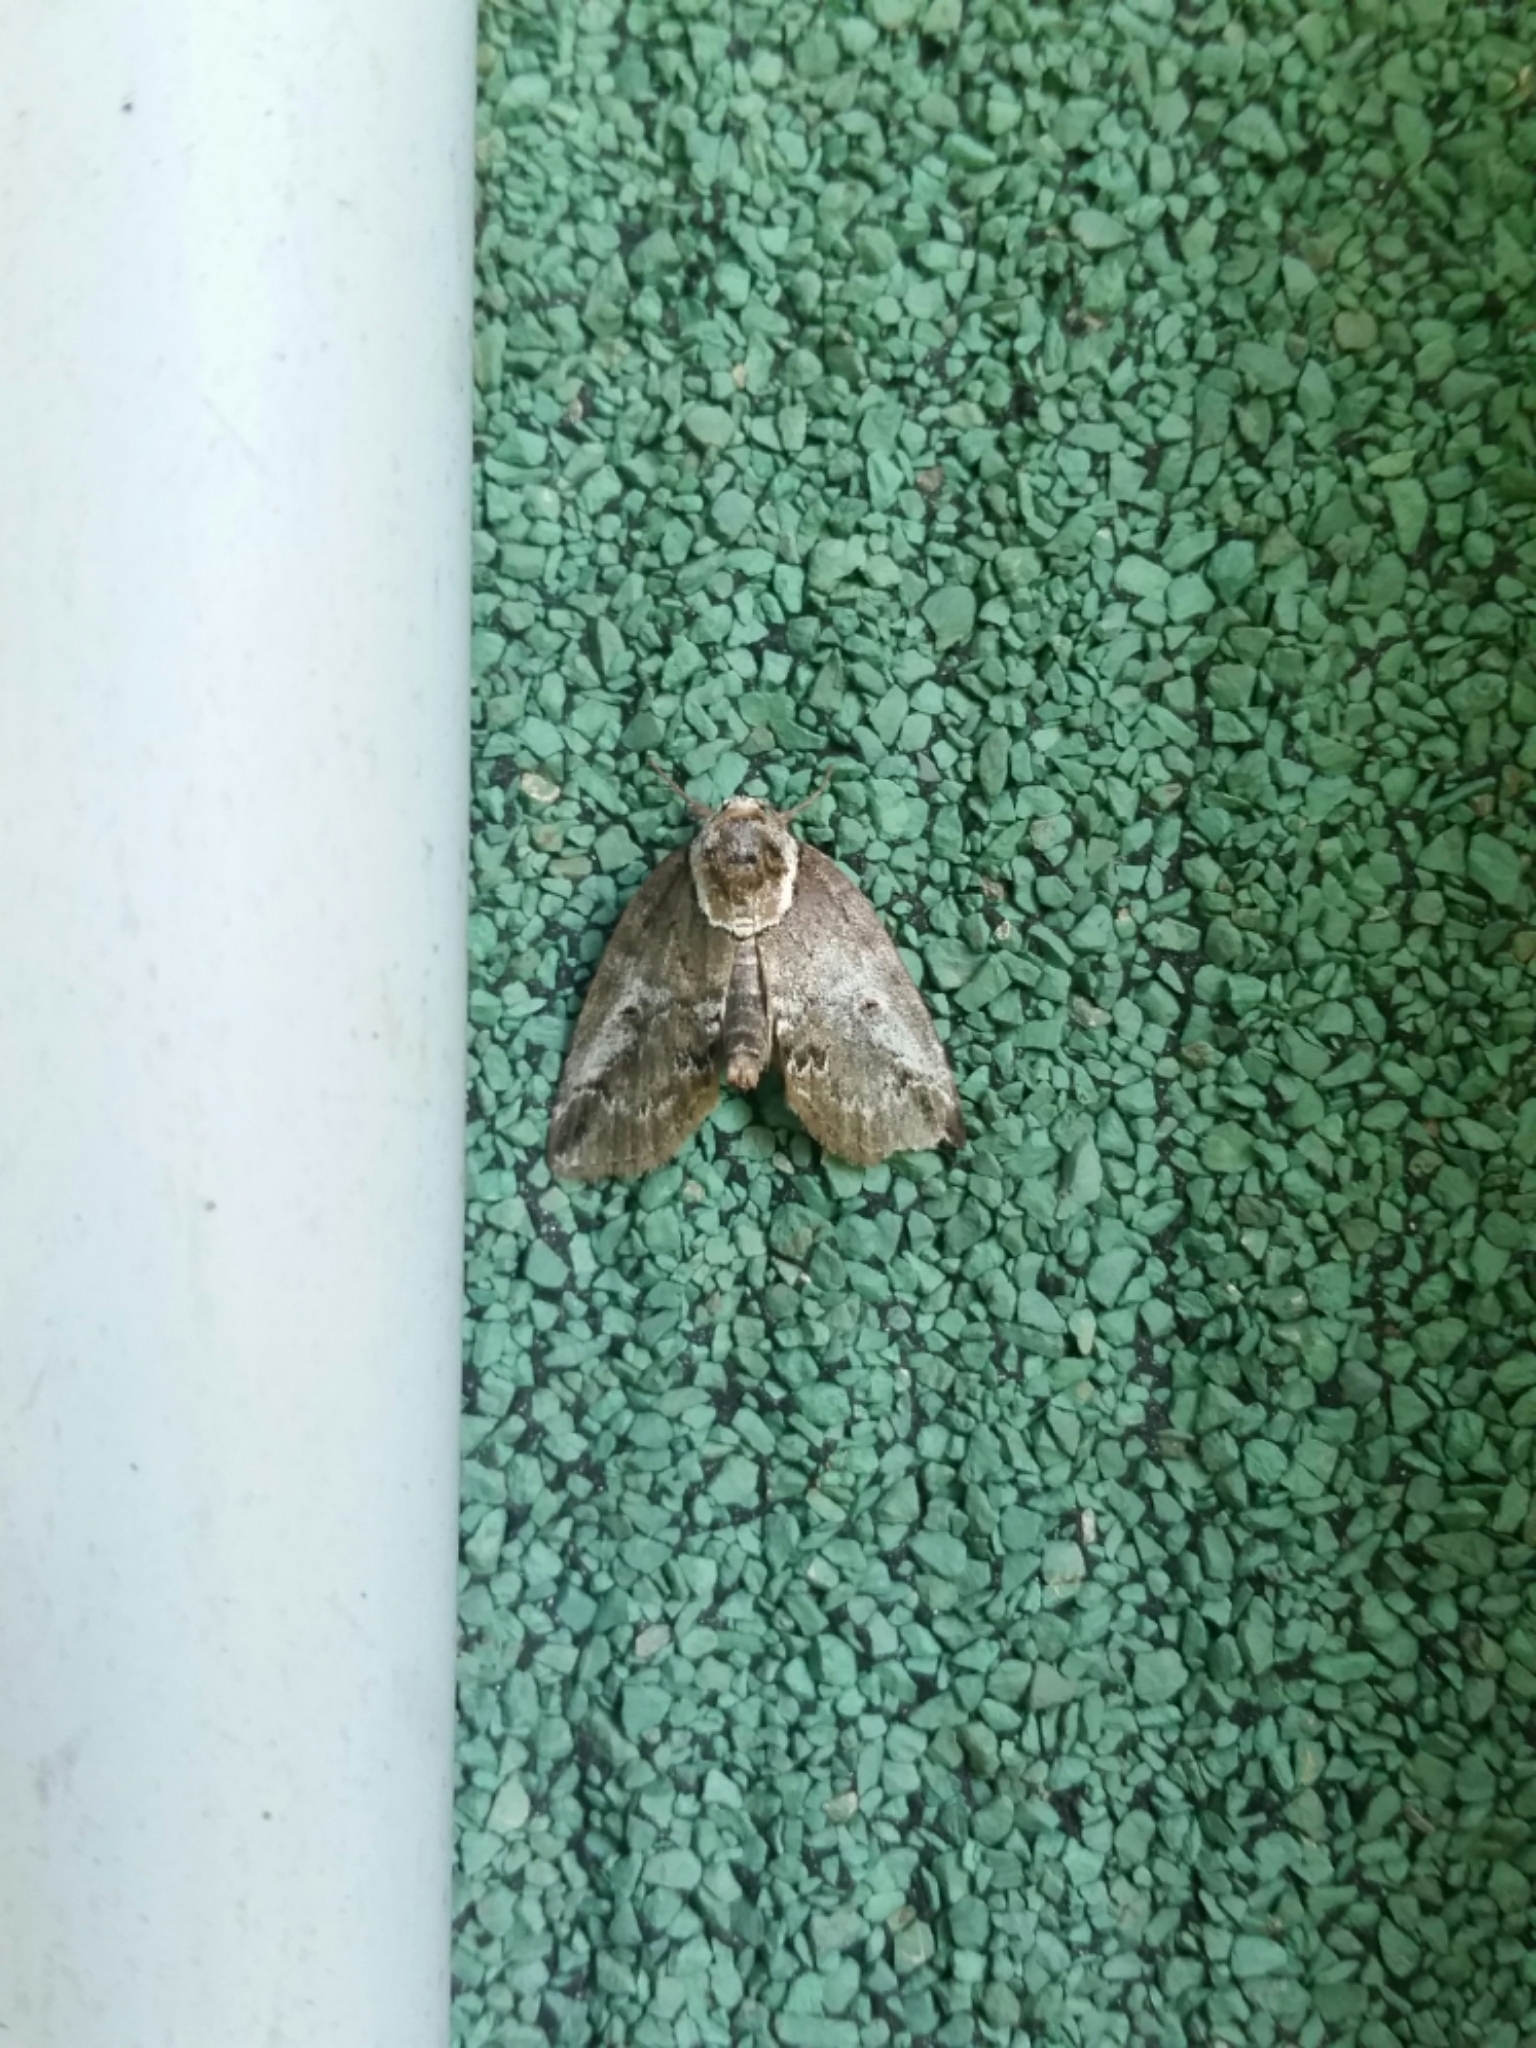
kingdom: Animalia
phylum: Arthropoda
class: Insecta
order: Lepidoptera
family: Nolidae
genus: Baileya
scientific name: Baileya ophthalmica
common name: Eyed baileya moth
